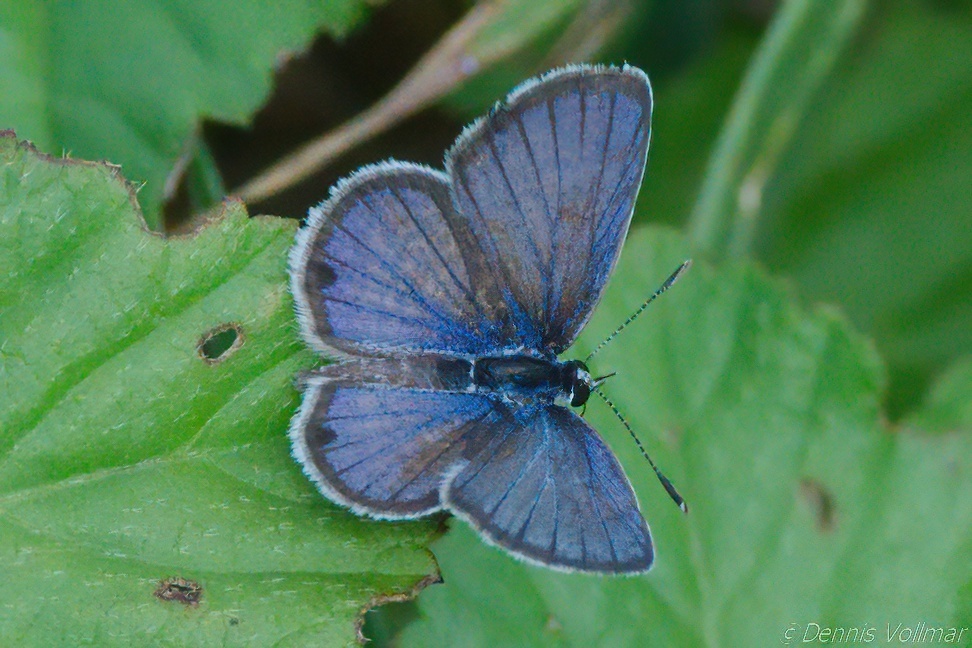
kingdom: Animalia
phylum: Arthropoda
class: Insecta
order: Lepidoptera
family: Lycaenidae
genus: Hemiargus
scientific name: Hemiargus ceraunus
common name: Ceraunus blue
